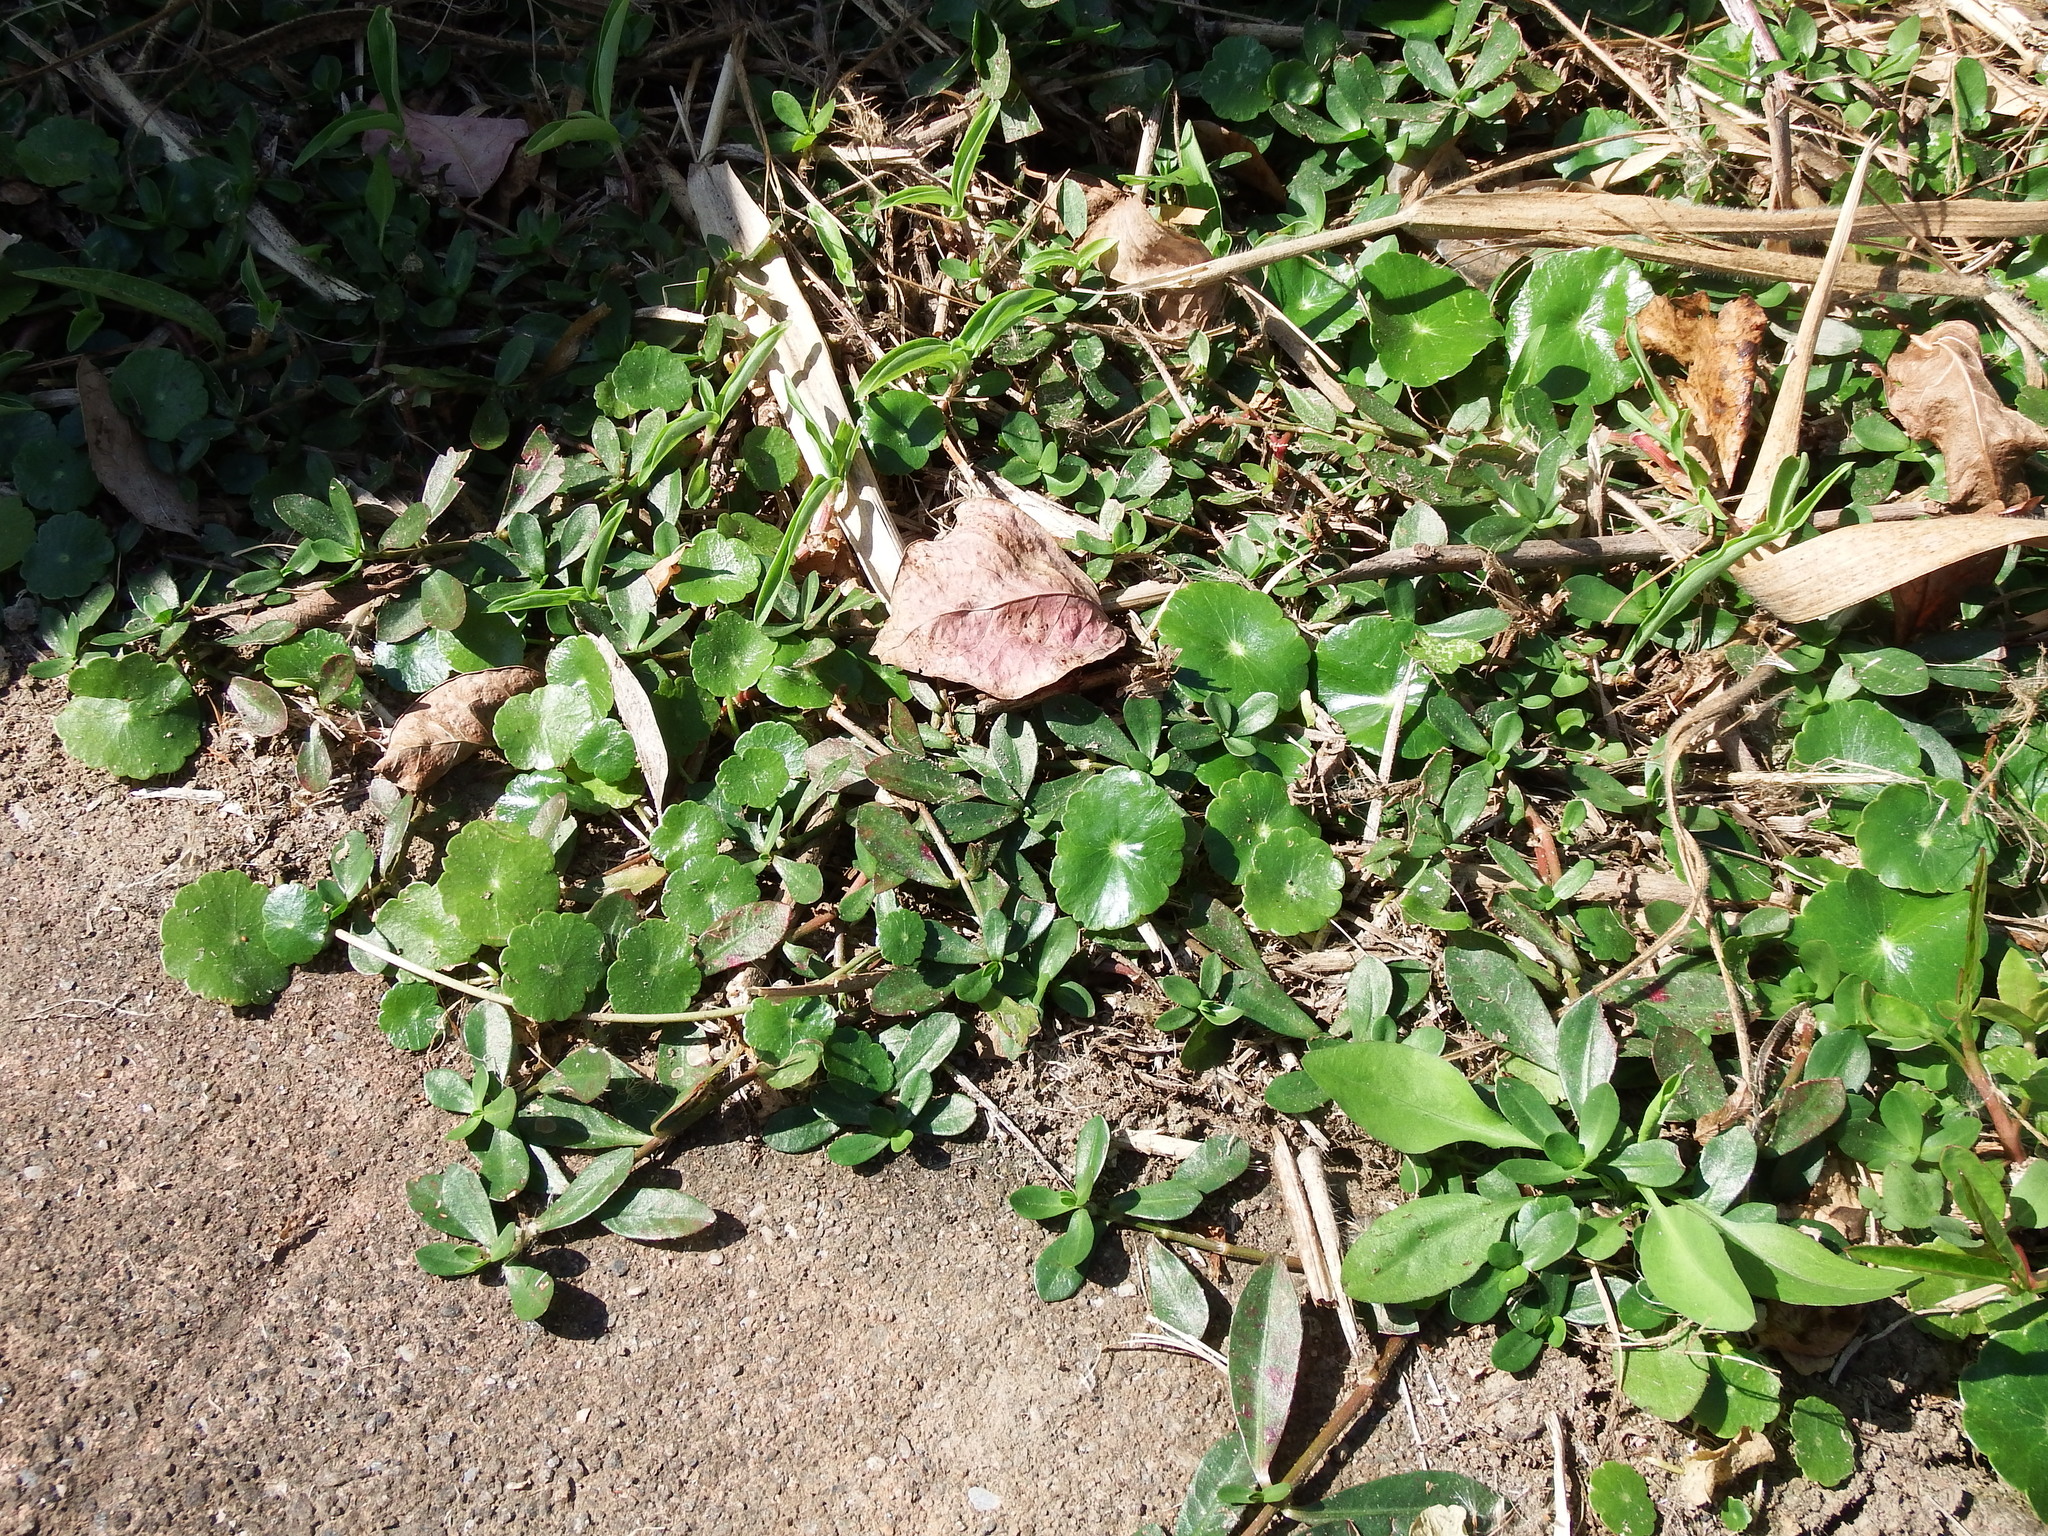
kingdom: Plantae
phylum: Tracheophyta
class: Magnoliopsida
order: Apiales
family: Araliaceae
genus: Hydrocotyle
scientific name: Hydrocotyle verticillata
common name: Whorled marshpennywort
